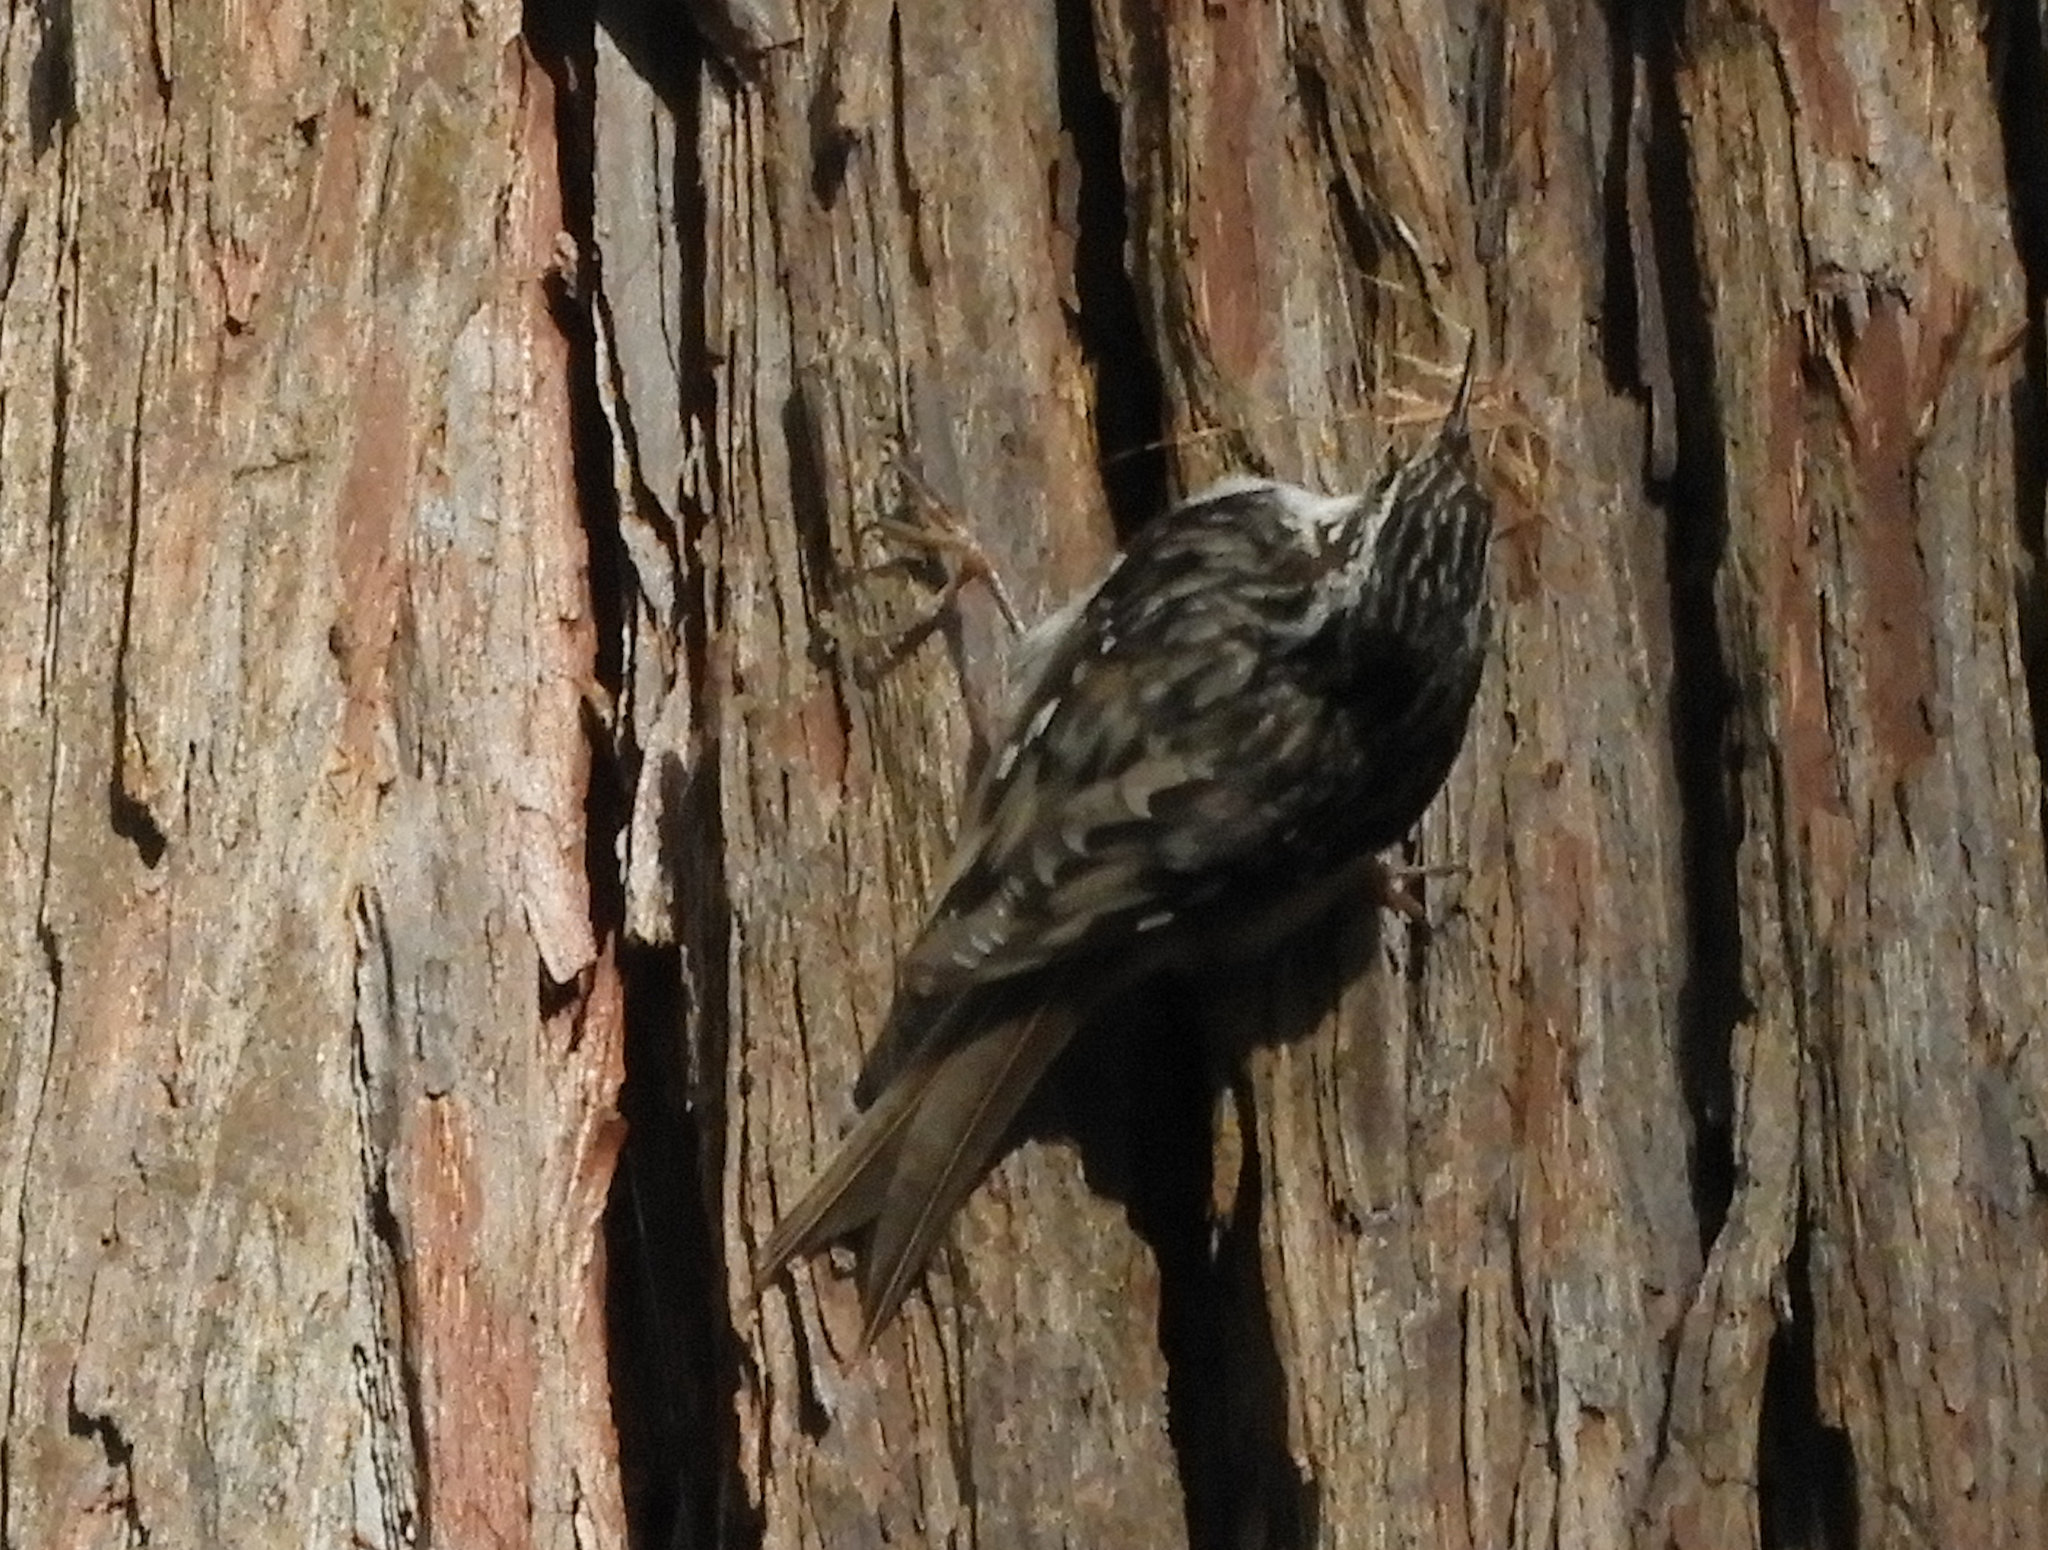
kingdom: Animalia
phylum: Chordata
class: Aves
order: Passeriformes
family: Certhiidae
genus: Certhia
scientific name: Certhia americana
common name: Brown creeper
